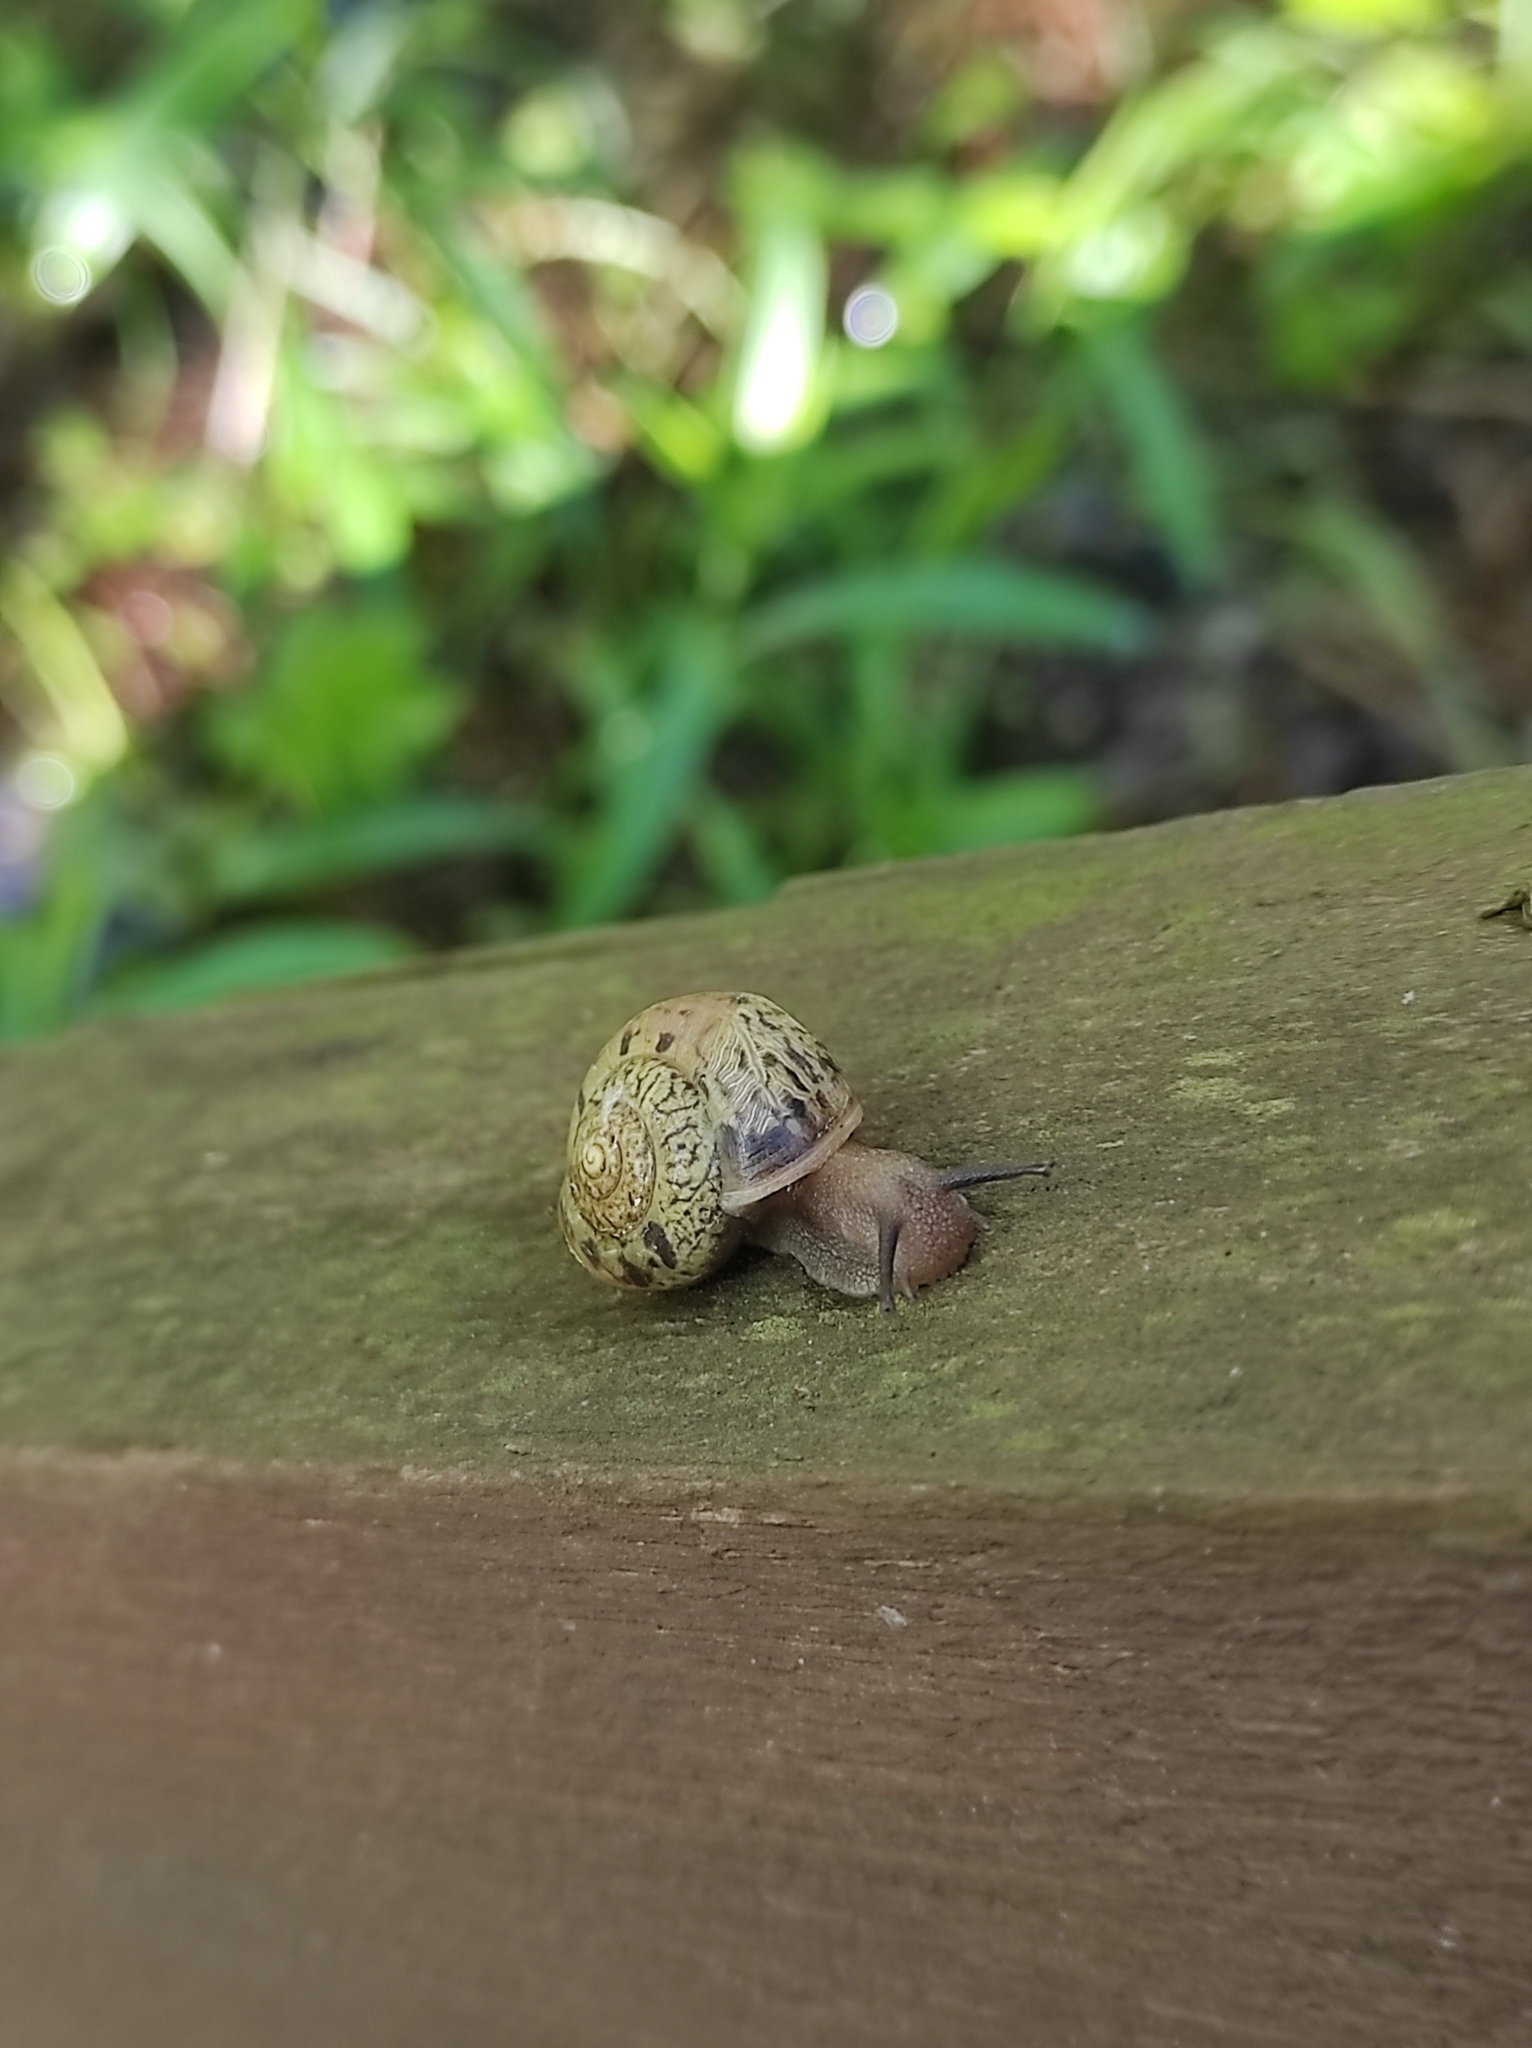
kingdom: Animalia
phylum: Mollusca
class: Gastropoda
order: Stylommatophora
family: Camaenidae
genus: Fruticicola
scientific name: Fruticicola fruticum
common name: Bush snail
